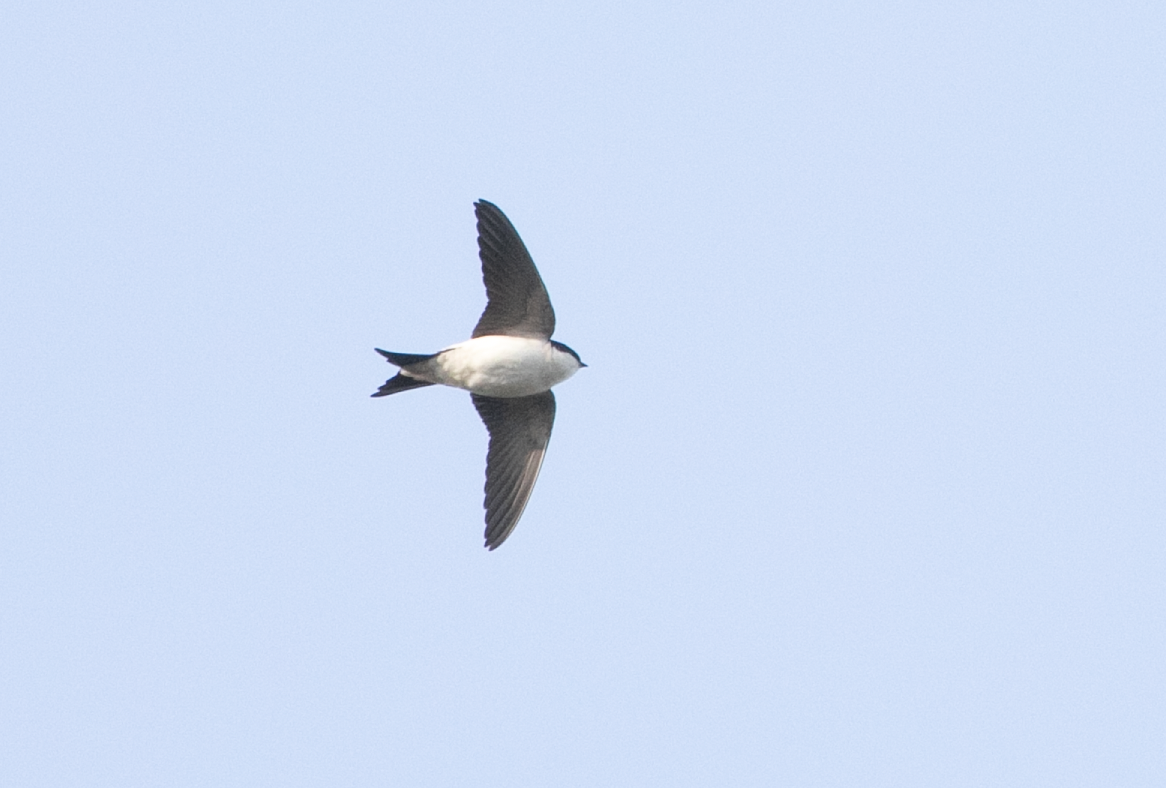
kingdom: Animalia
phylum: Chordata
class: Aves
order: Passeriformes
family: Hirundinidae
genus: Delichon
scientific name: Delichon urbicum
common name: Common house martin
